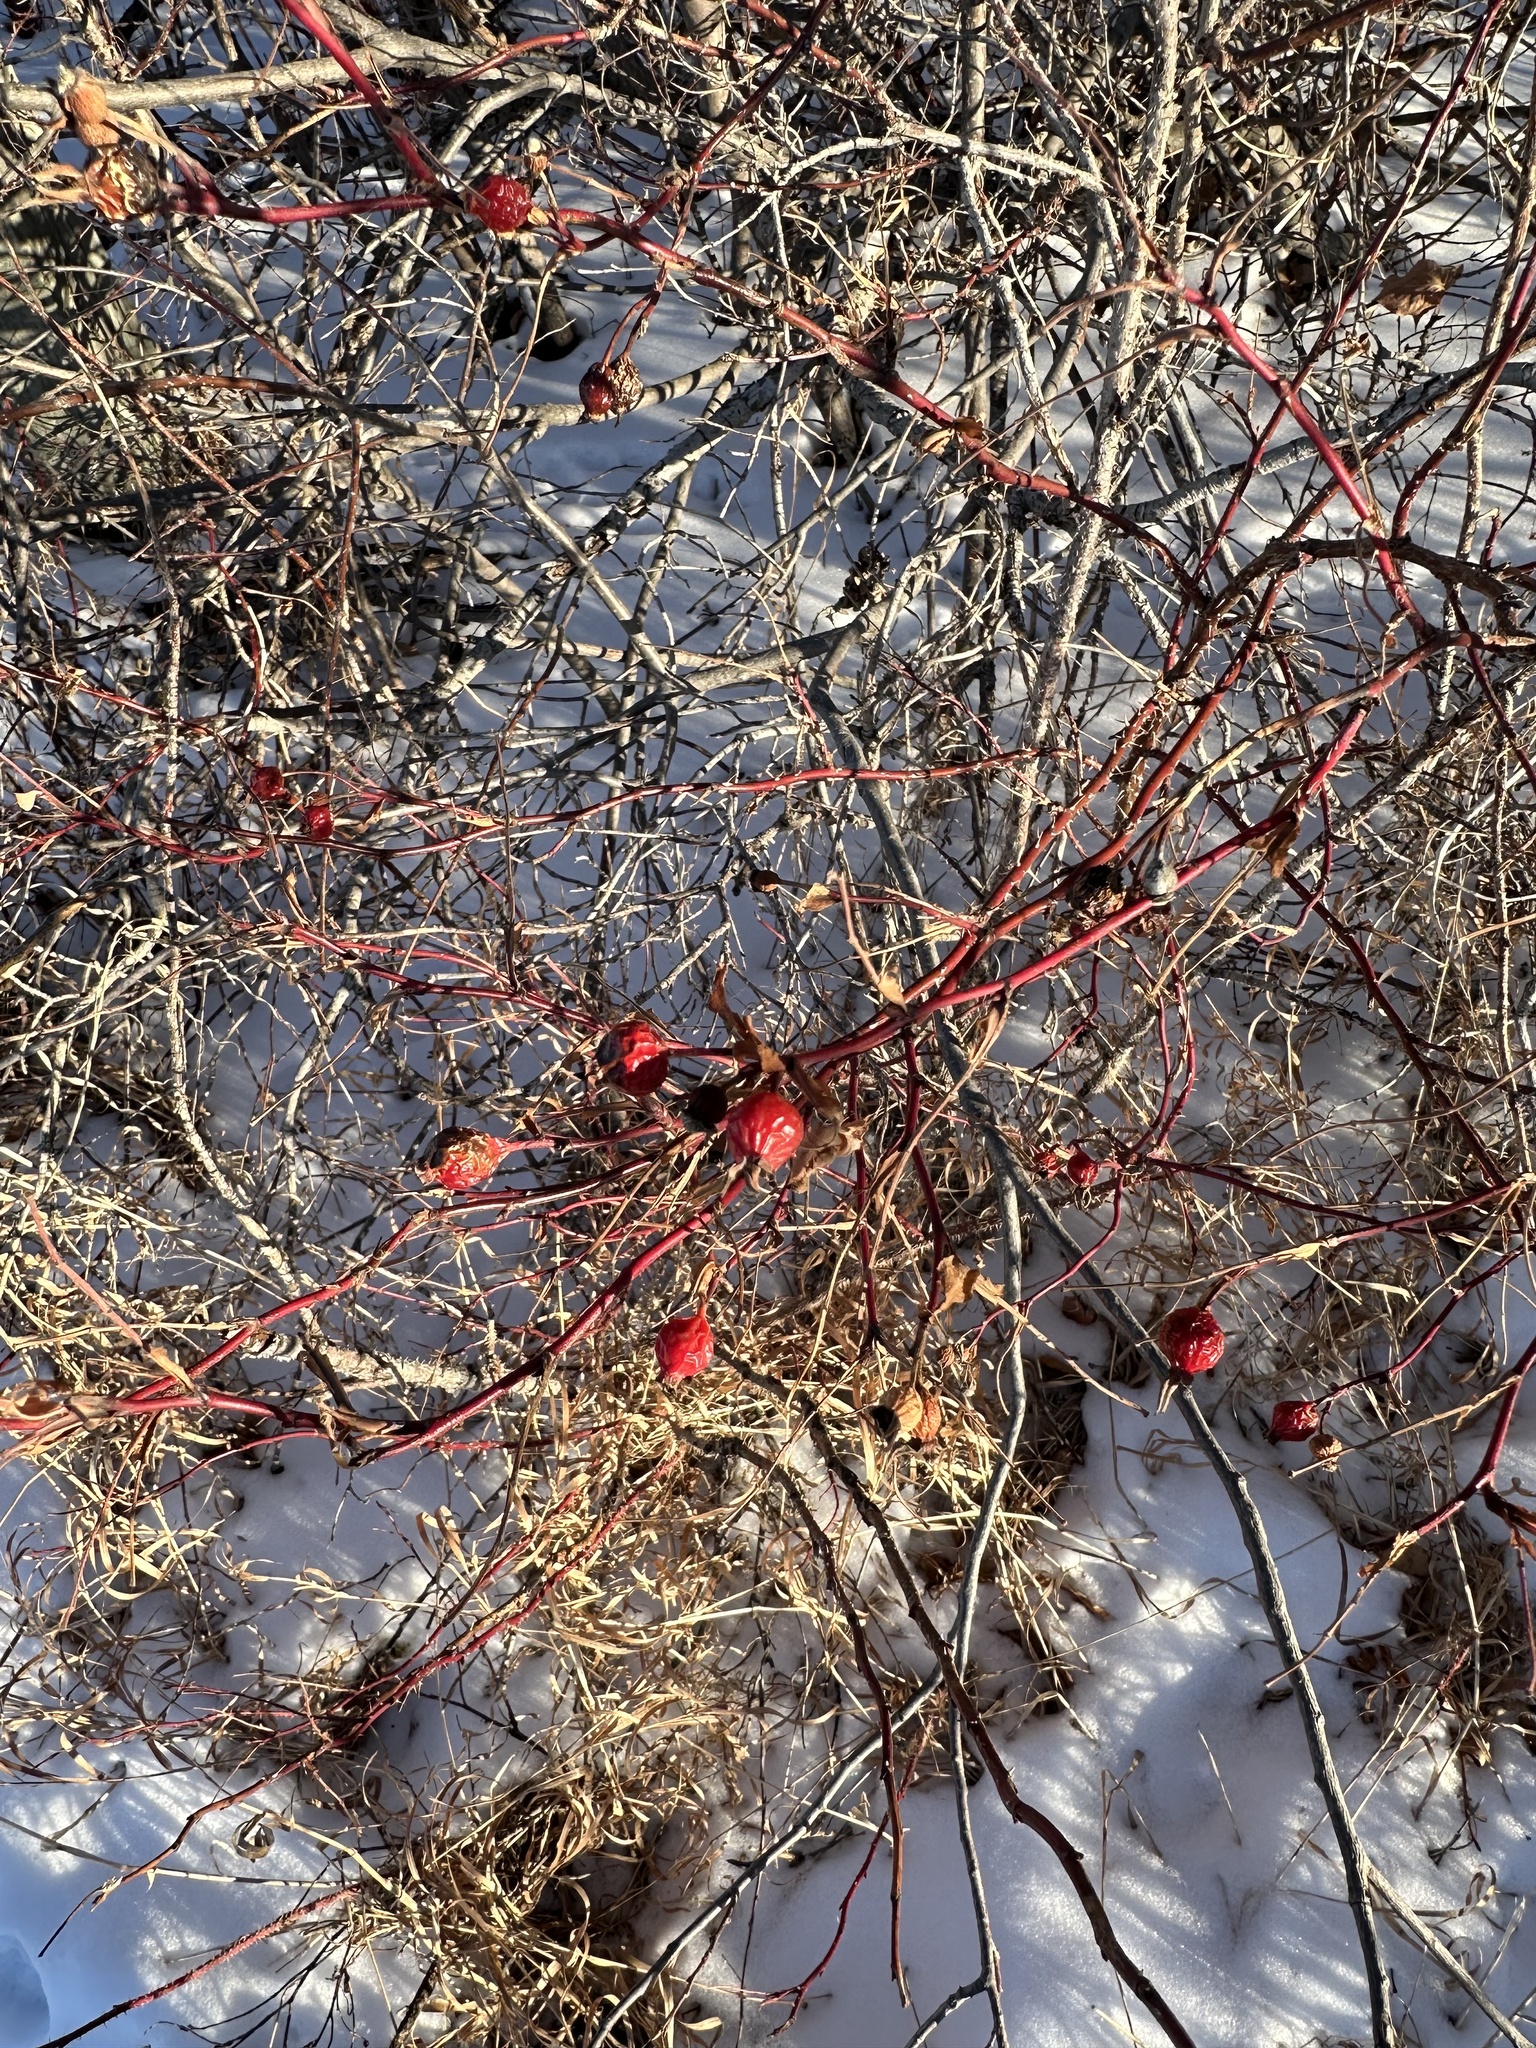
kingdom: Plantae
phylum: Tracheophyta
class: Magnoliopsida
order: Rosales
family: Rosaceae
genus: Rosa
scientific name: Rosa woodsii
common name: Woods's rose
